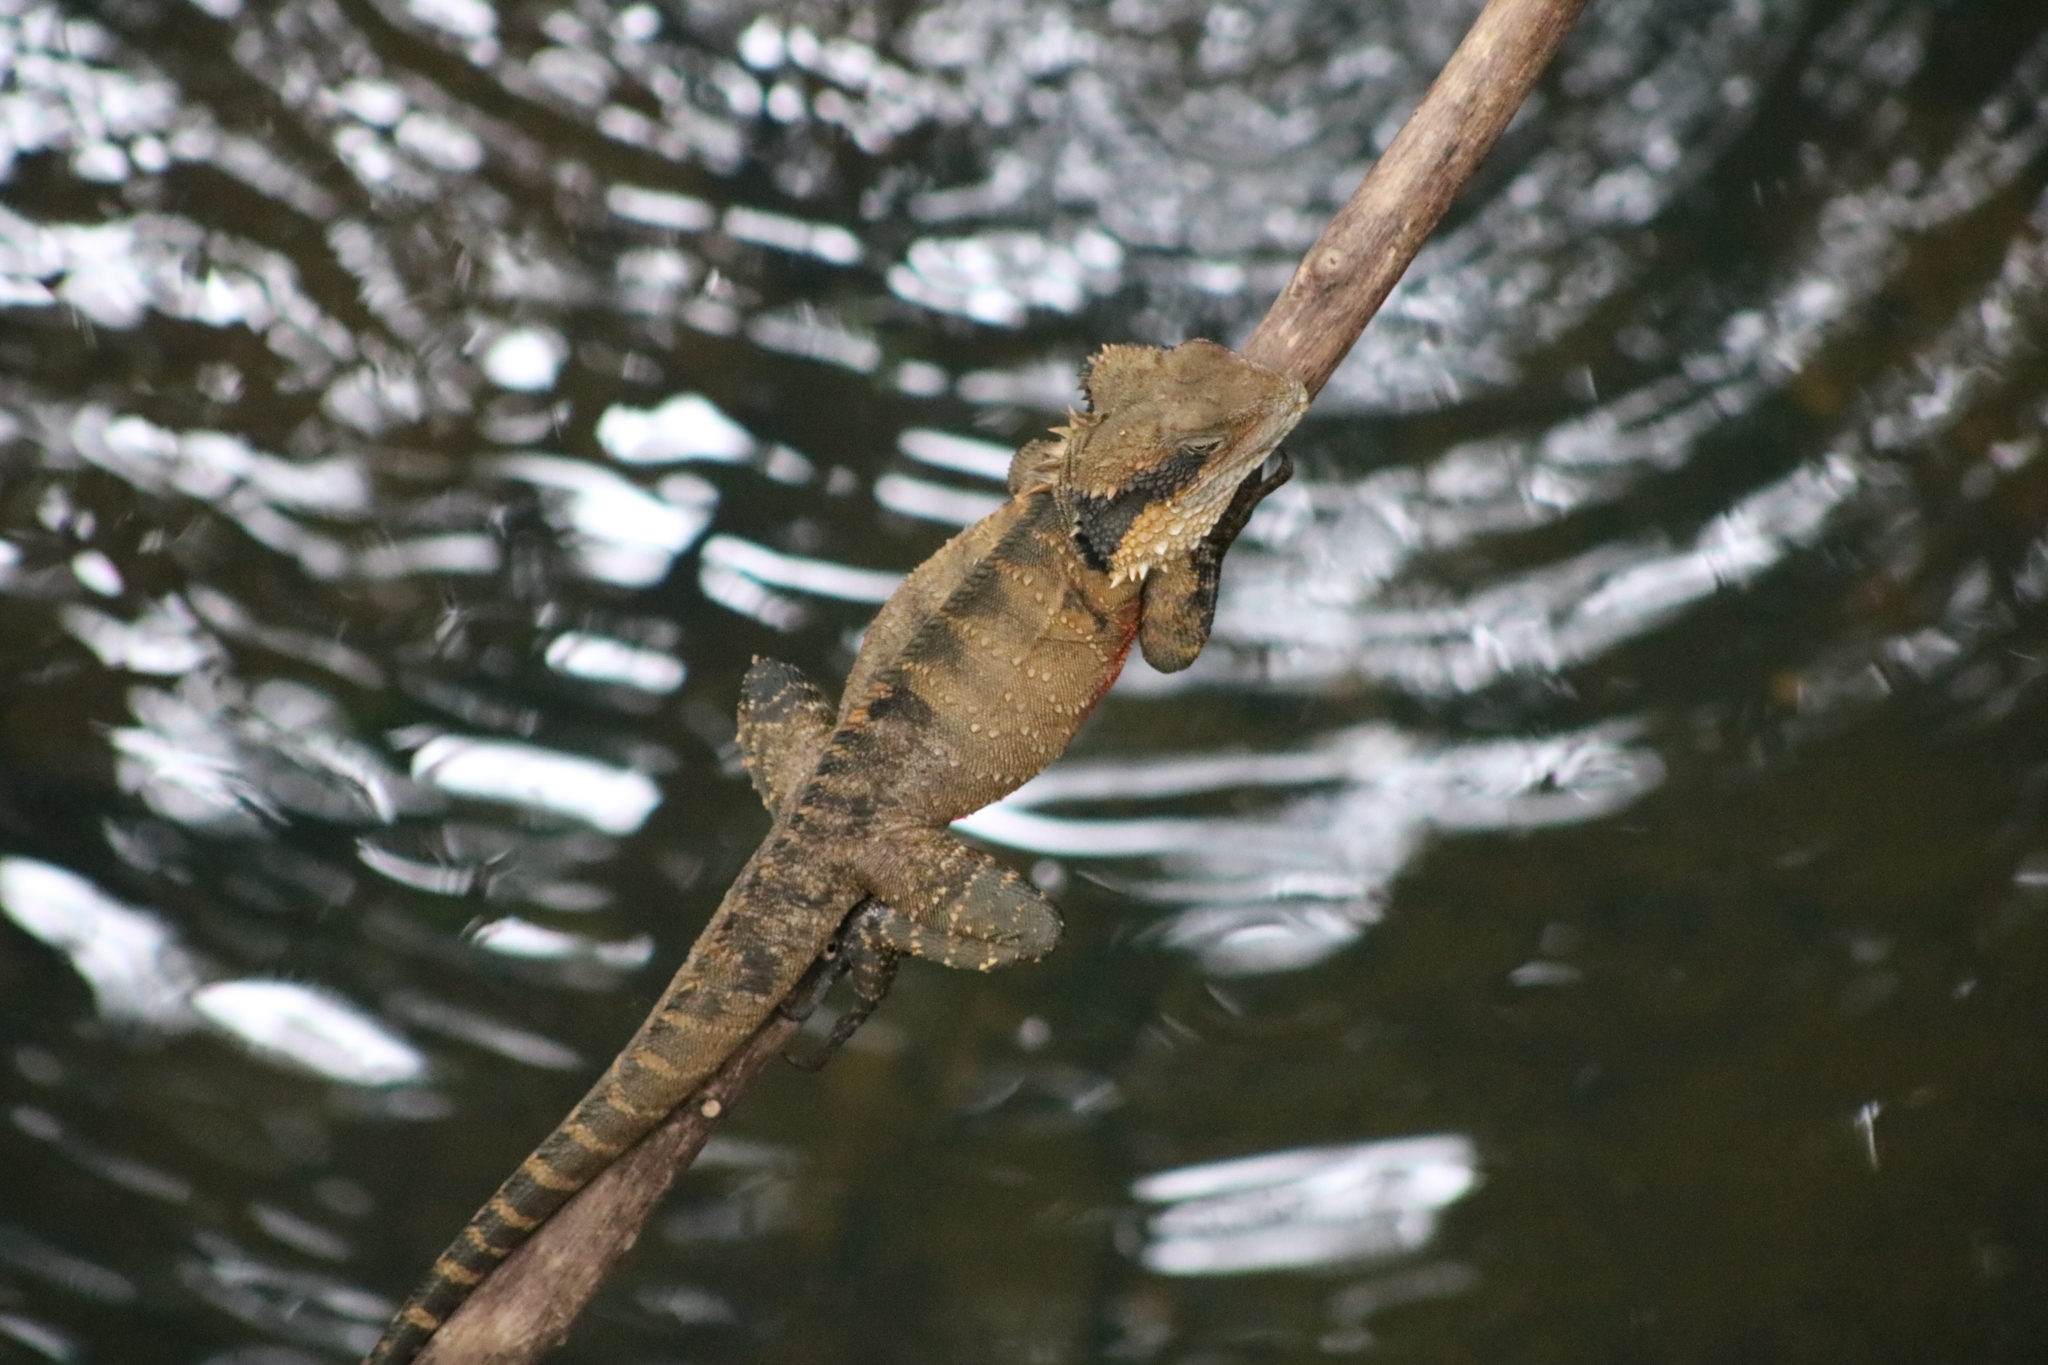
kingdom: Animalia
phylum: Chordata
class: Squamata
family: Agamidae
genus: Intellagama
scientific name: Intellagama lesueurii
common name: Eastern water dragon
